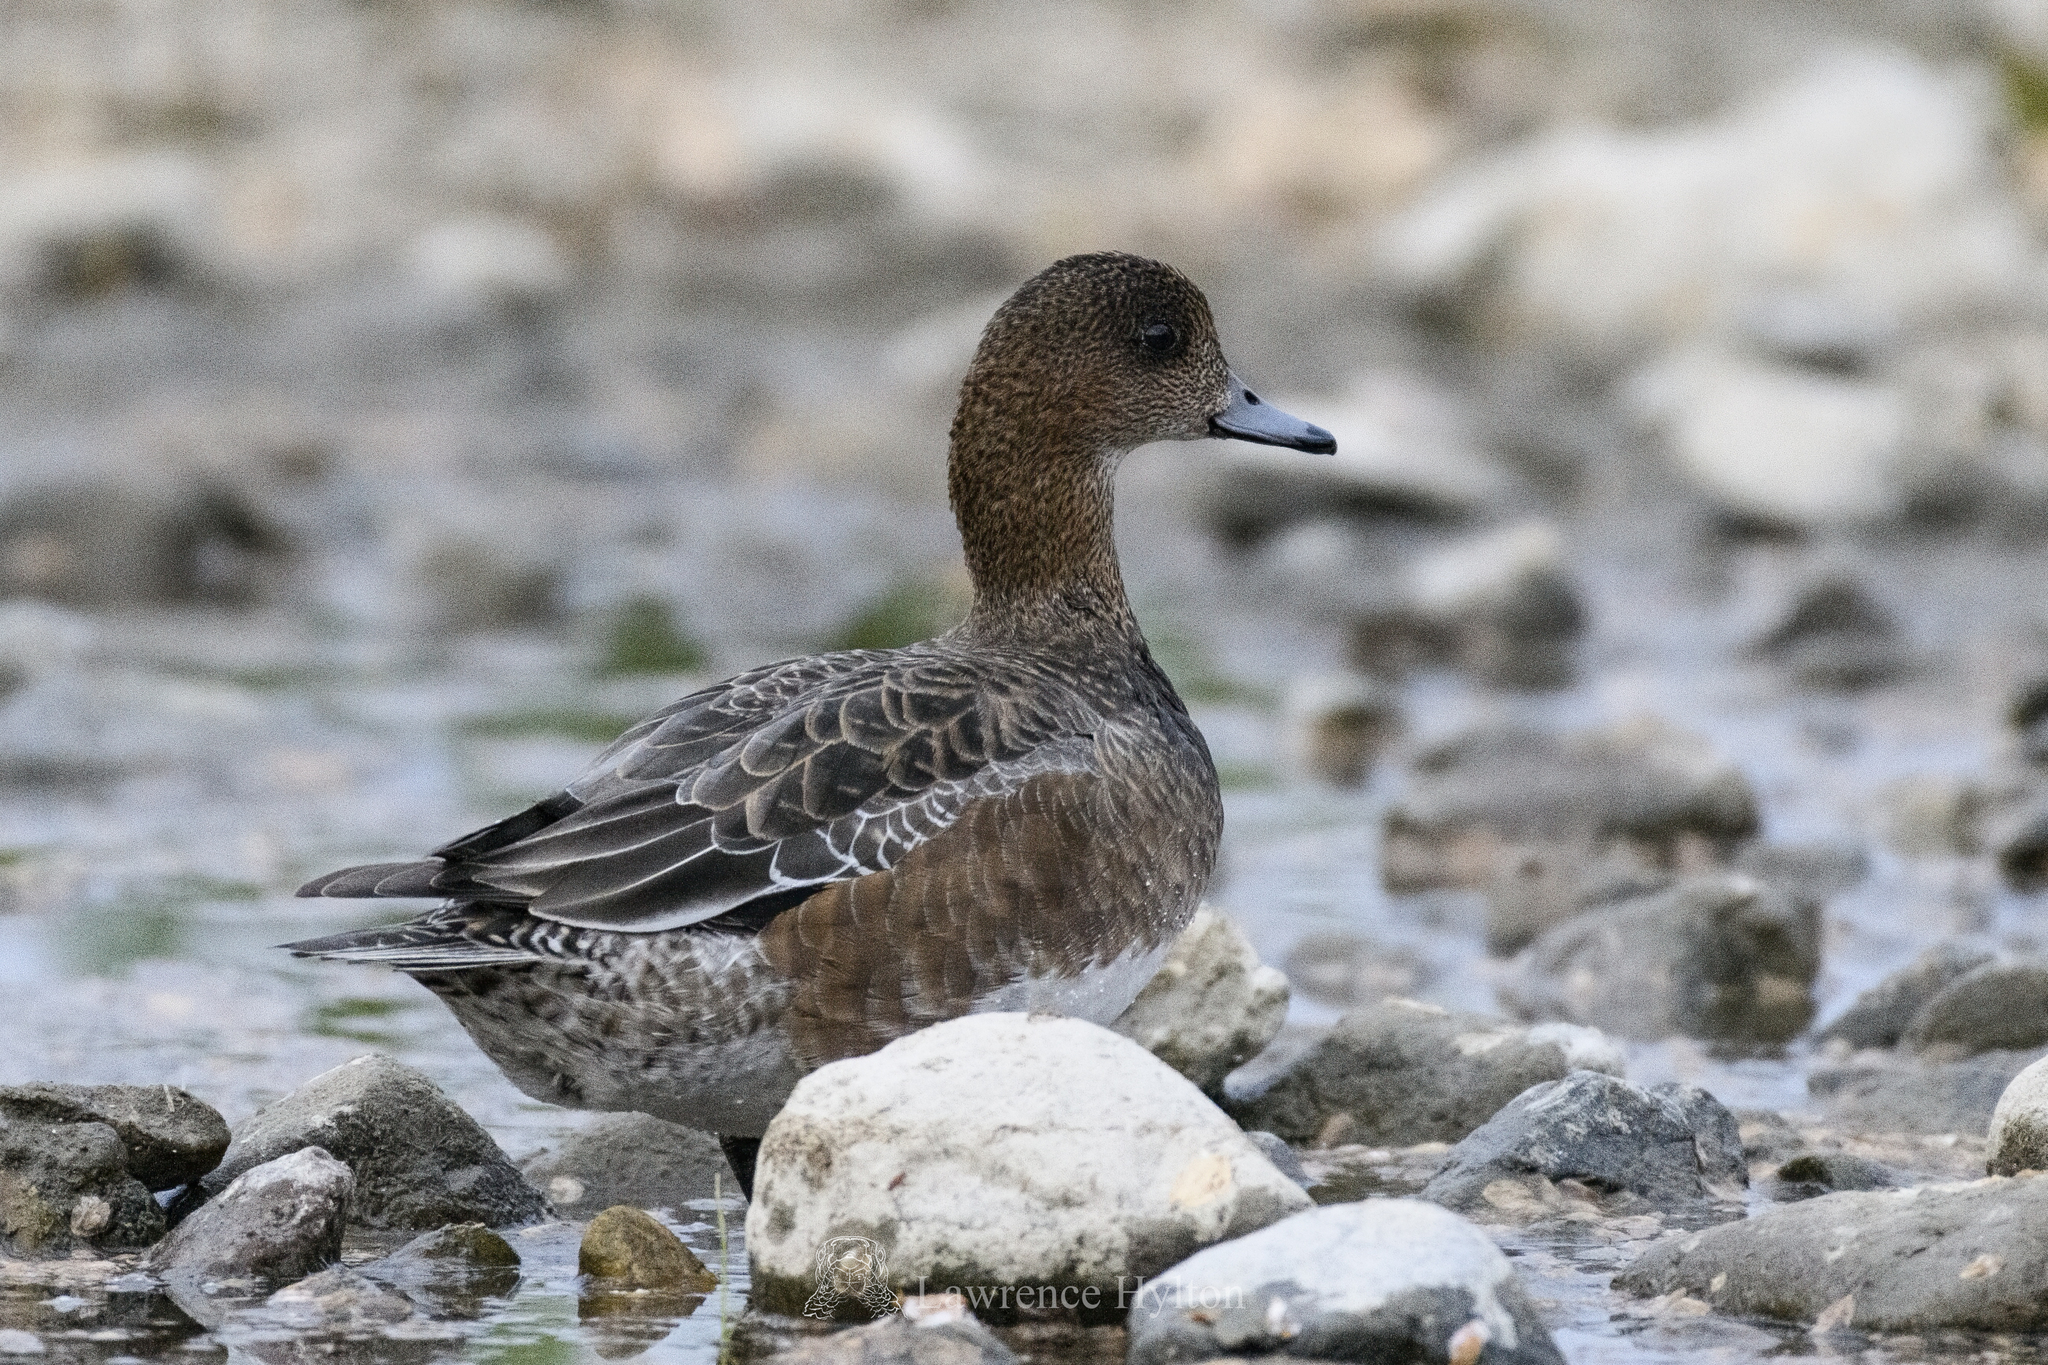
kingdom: Animalia
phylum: Chordata
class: Aves
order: Anseriformes
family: Anatidae
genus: Mareca
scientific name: Mareca penelope
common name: Eurasian wigeon
